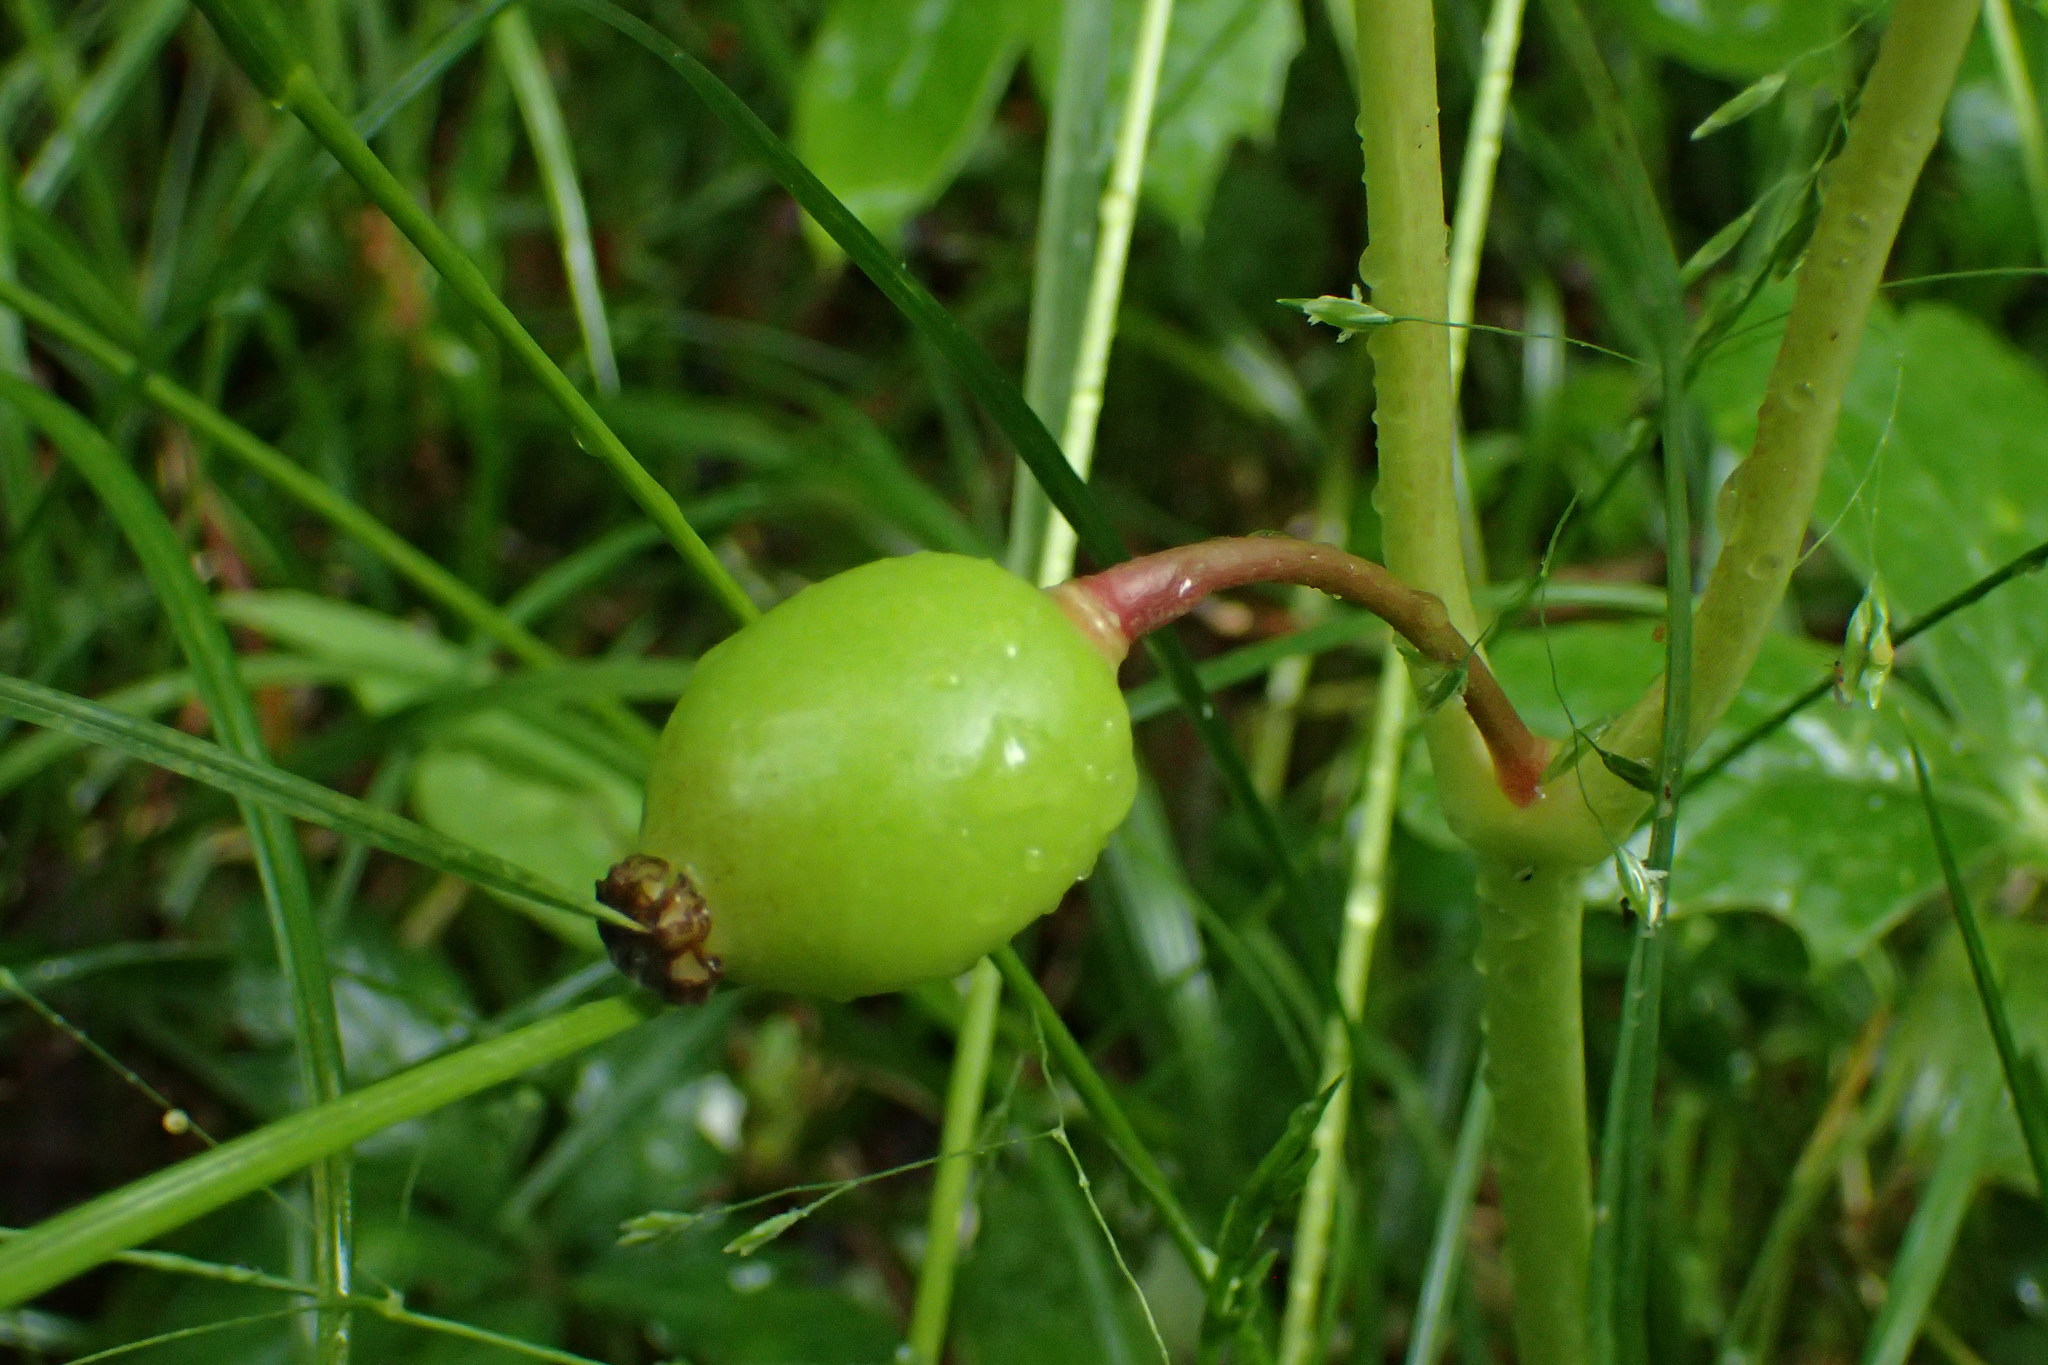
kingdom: Plantae
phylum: Tracheophyta
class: Magnoliopsida
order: Ranunculales
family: Berberidaceae
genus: Podophyllum
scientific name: Podophyllum peltatum
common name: Wild mandrake
